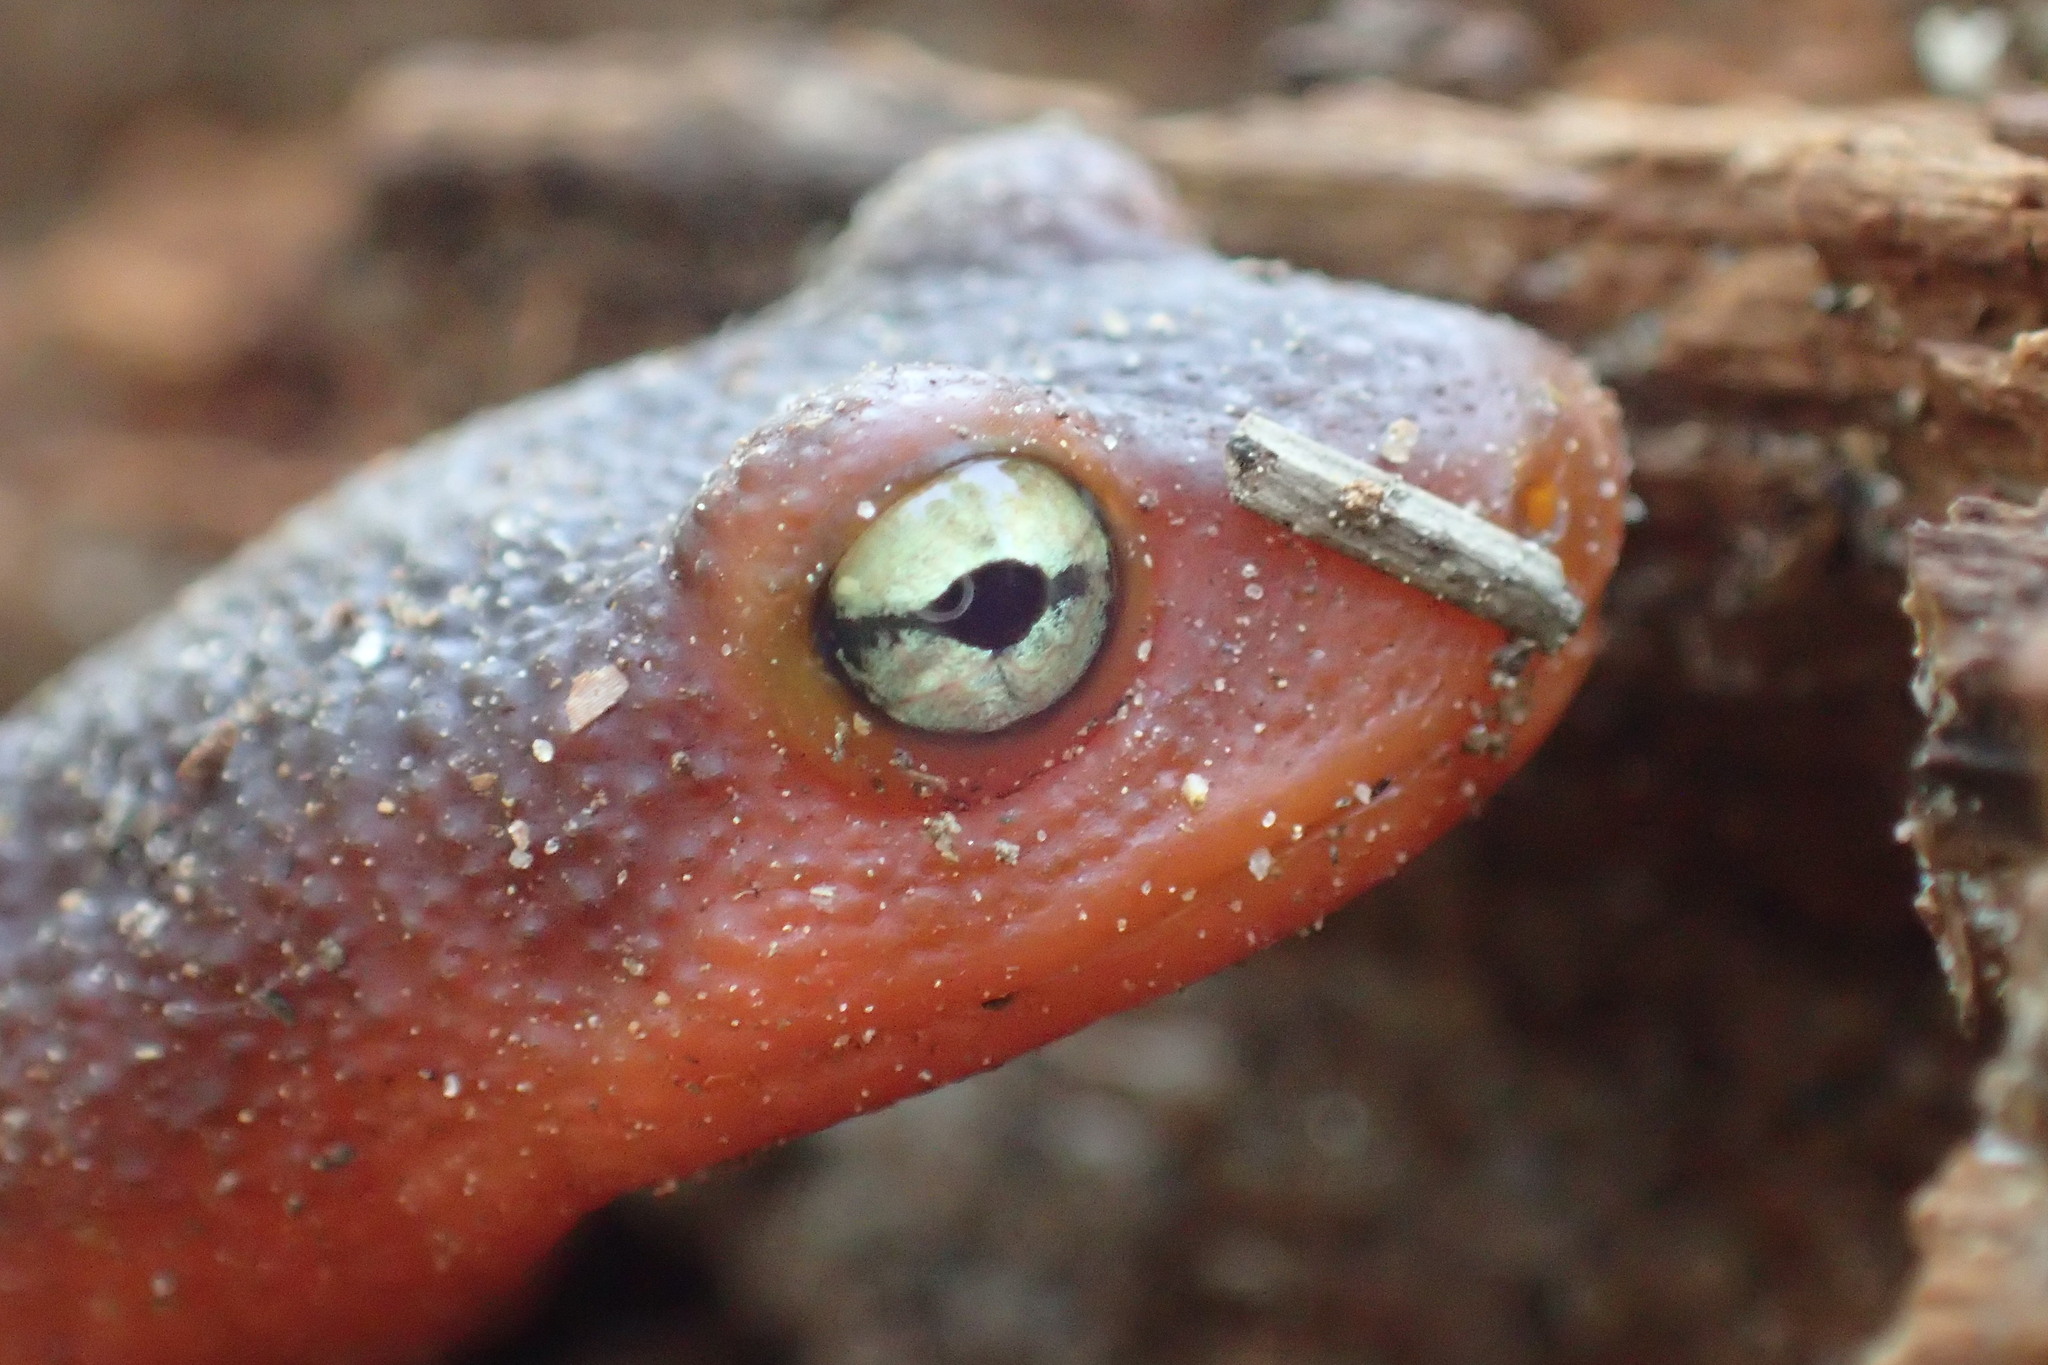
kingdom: Animalia
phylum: Chordata
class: Amphibia
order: Caudata
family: Salamandridae
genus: Taricha
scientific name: Taricha sierrae
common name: Sierra newt
